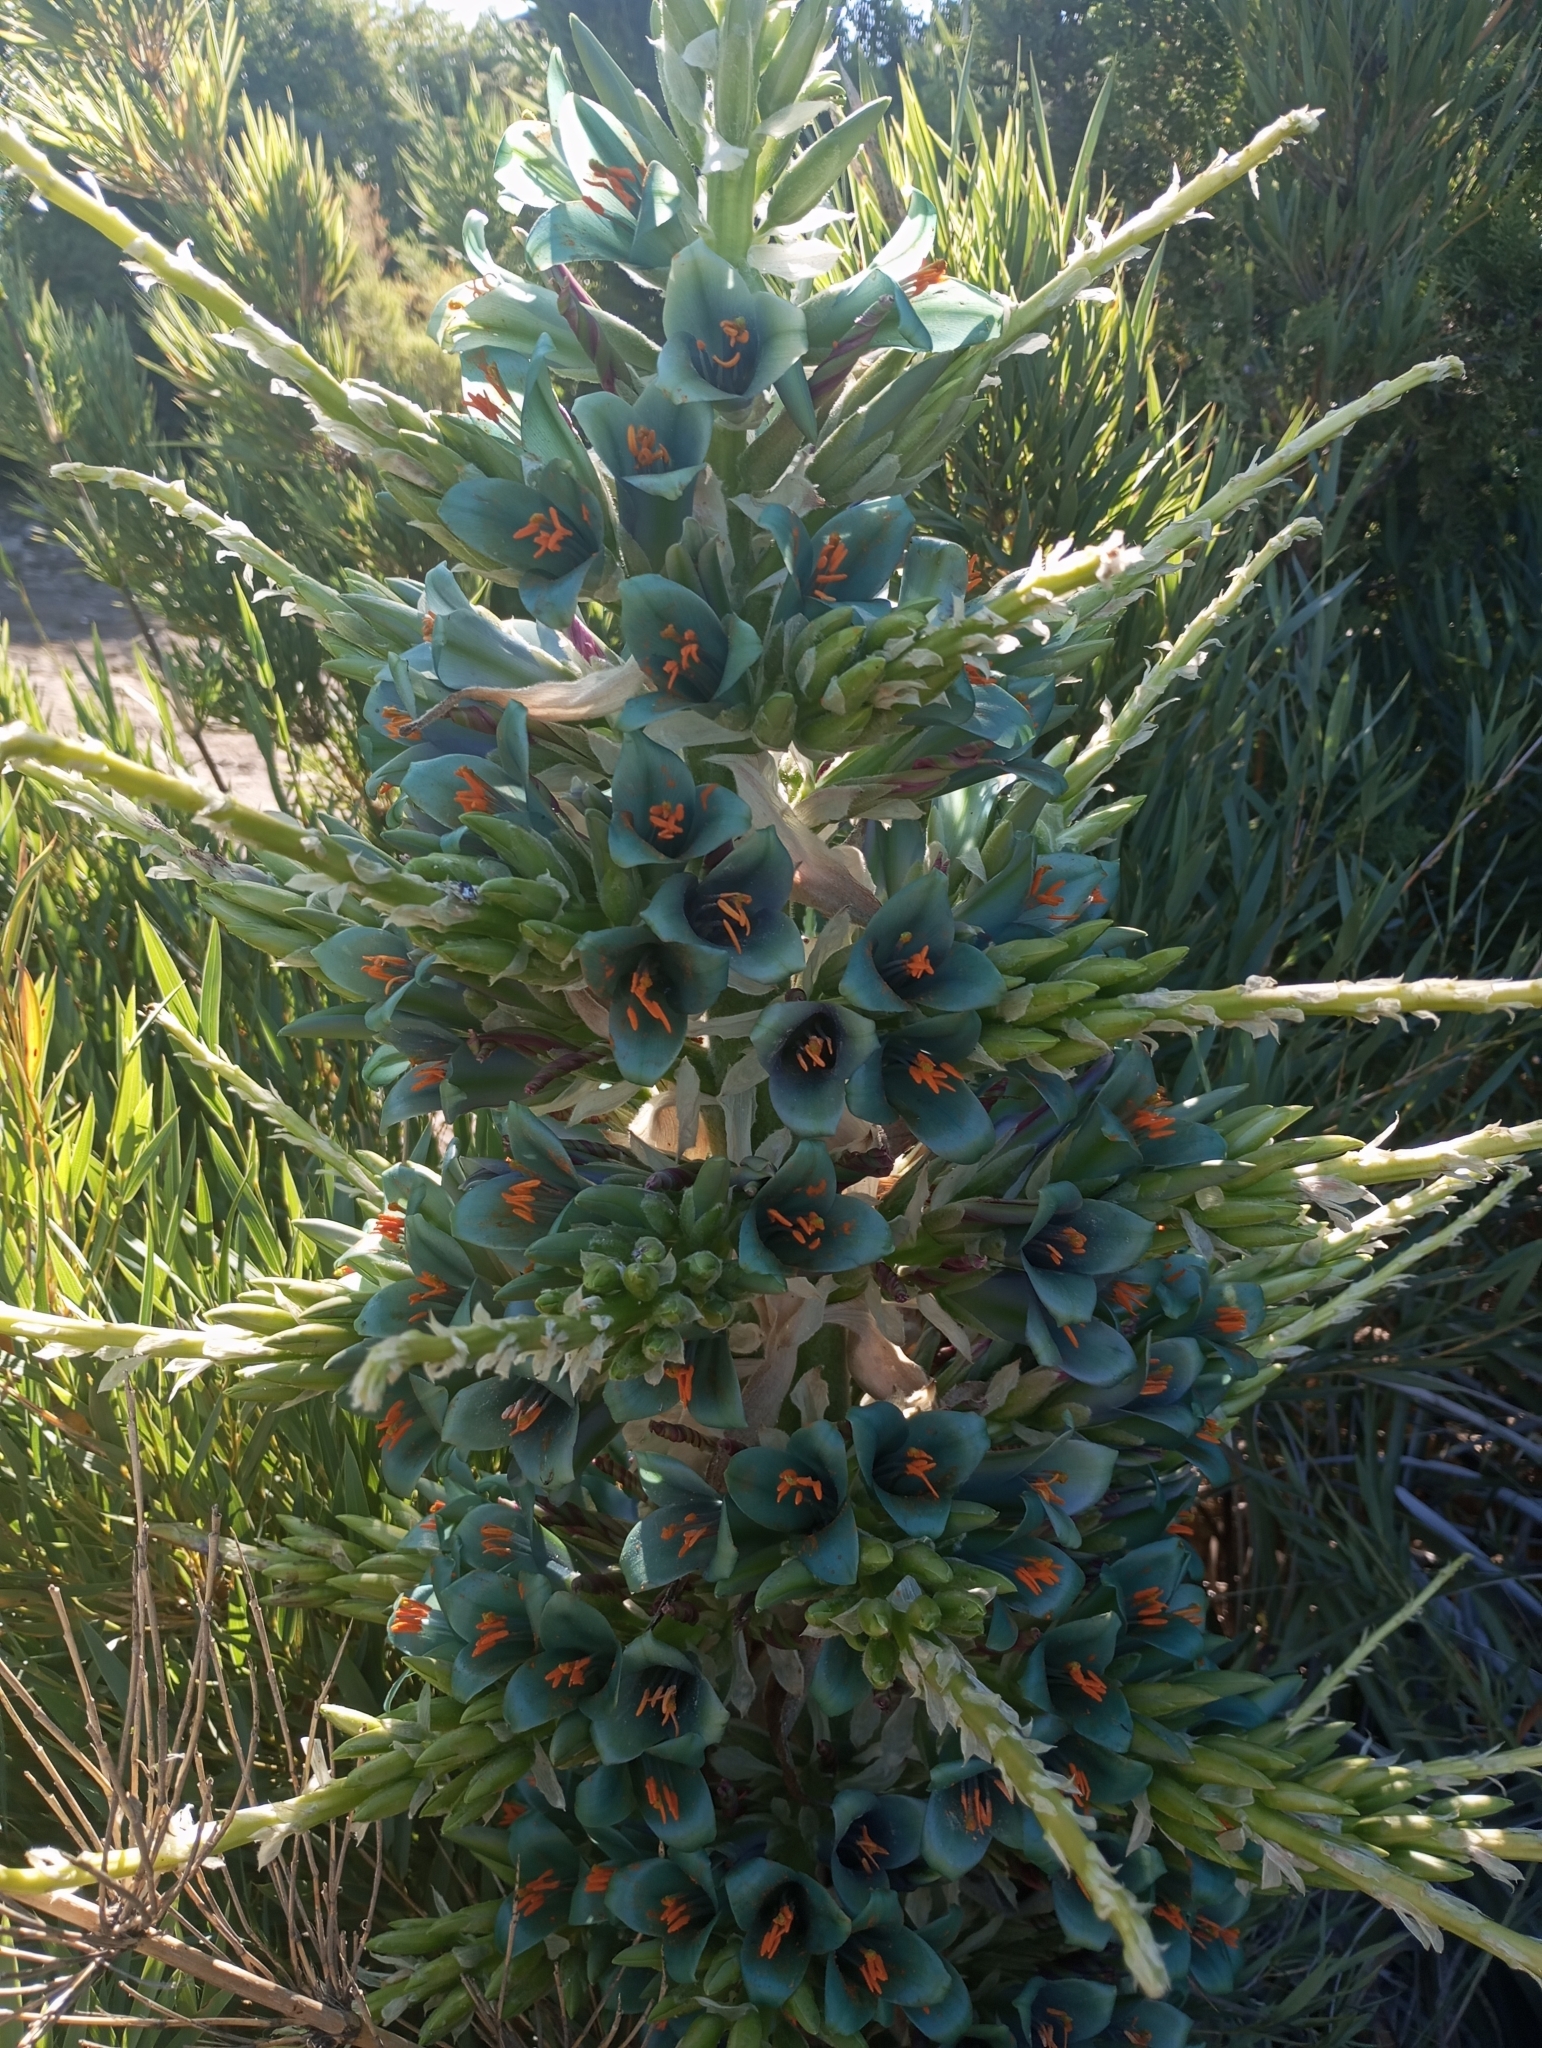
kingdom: Plantae
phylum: Tracheophyta
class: Liliopsida
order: Poales
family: Bromeliaceae
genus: Puya
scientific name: Puya alpestris
